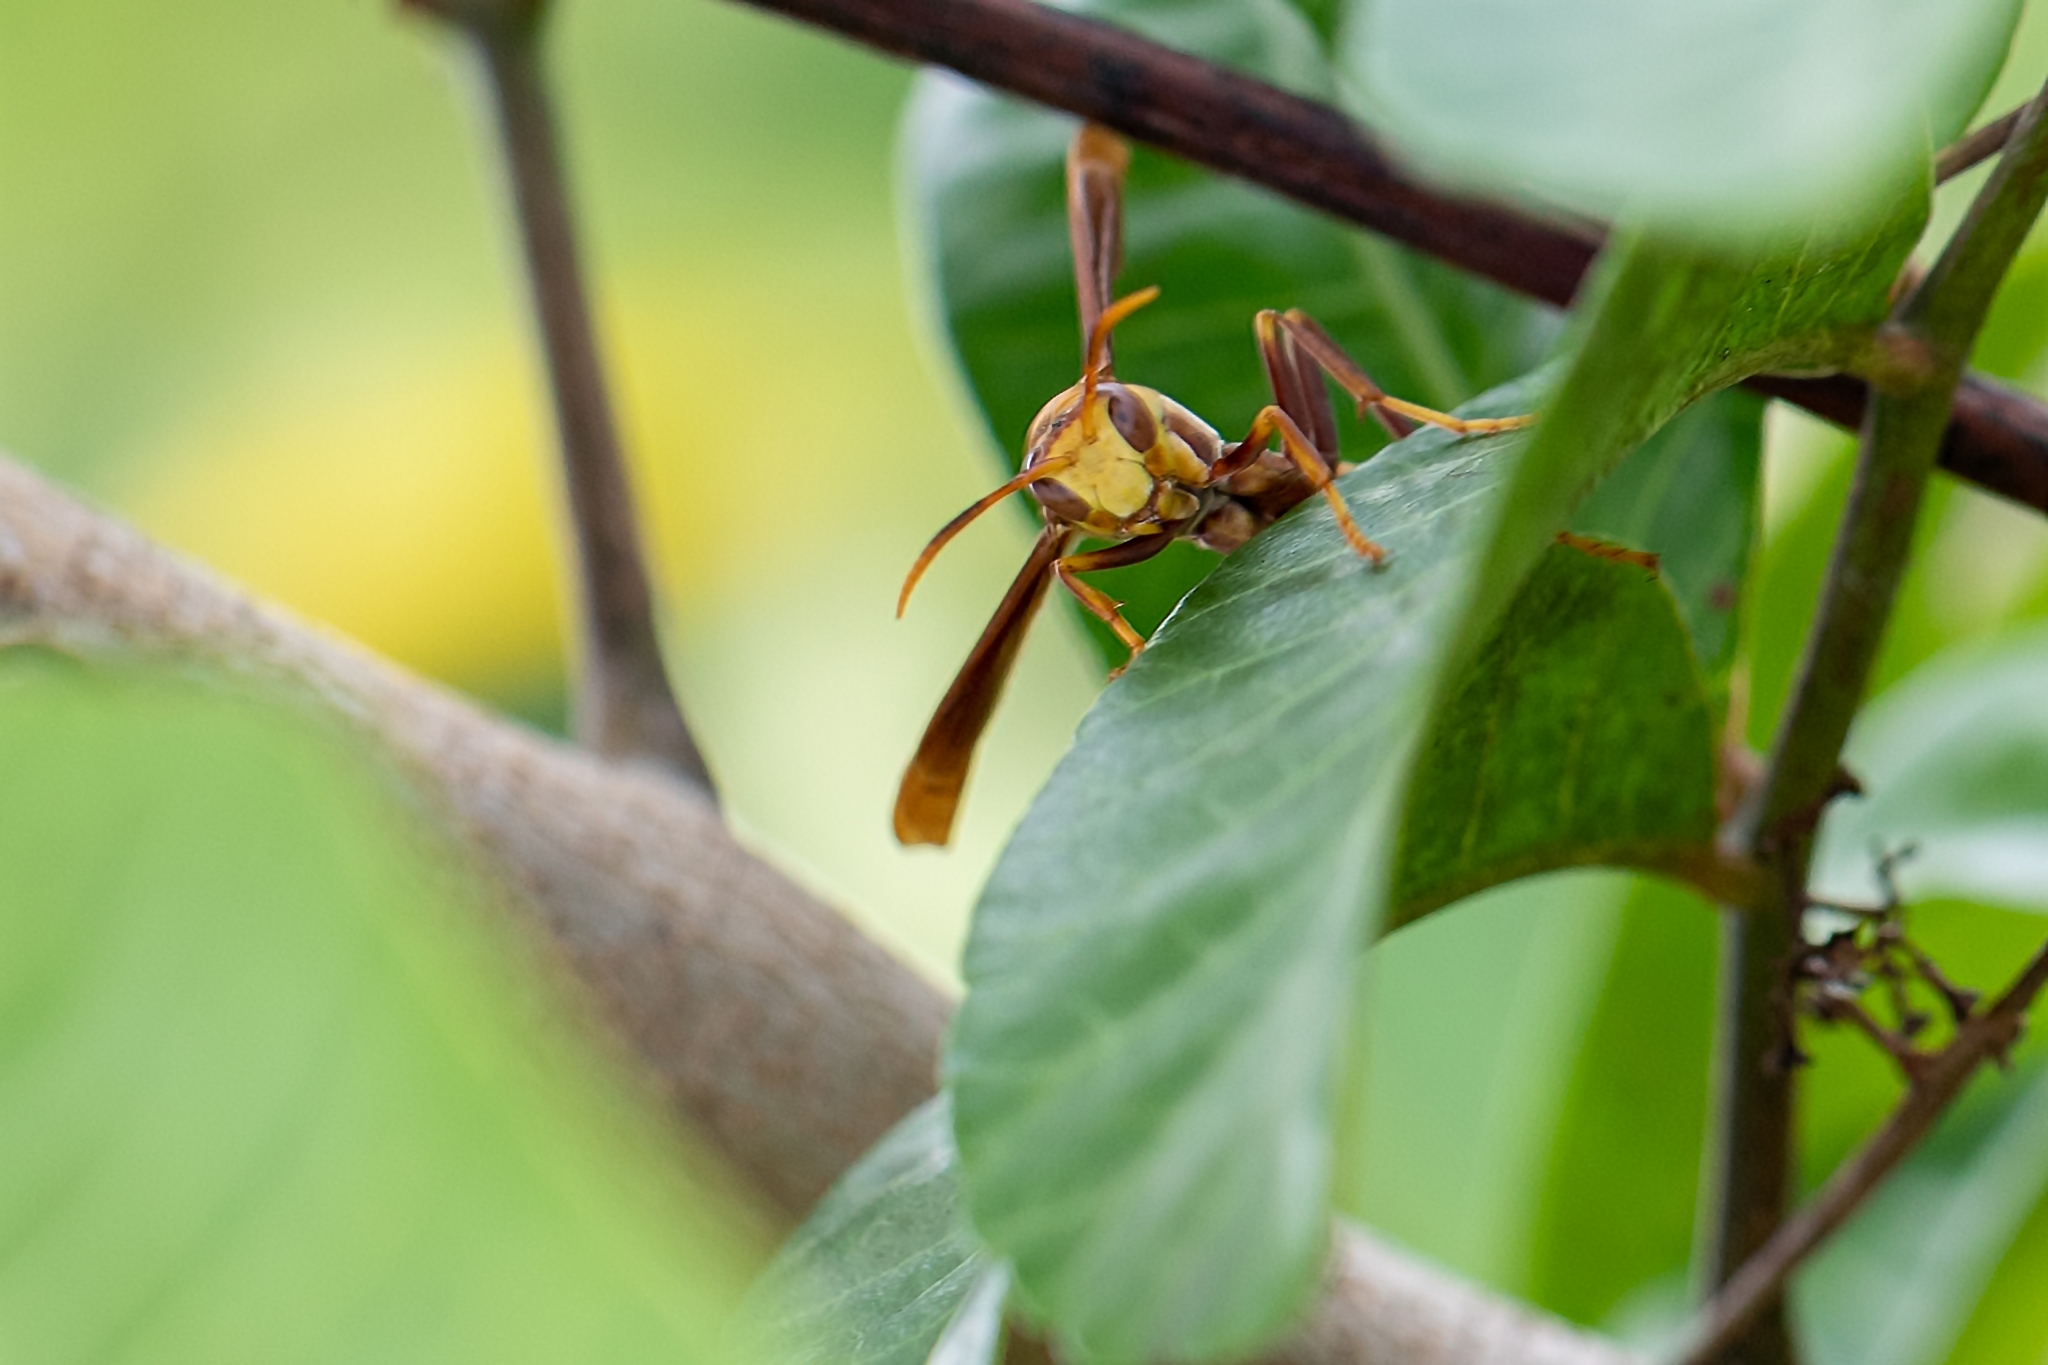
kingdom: Animalia
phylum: Arthropoda
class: Insecta
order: Hymenoptera
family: Eumenidae
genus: Polistes
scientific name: Polistes major
